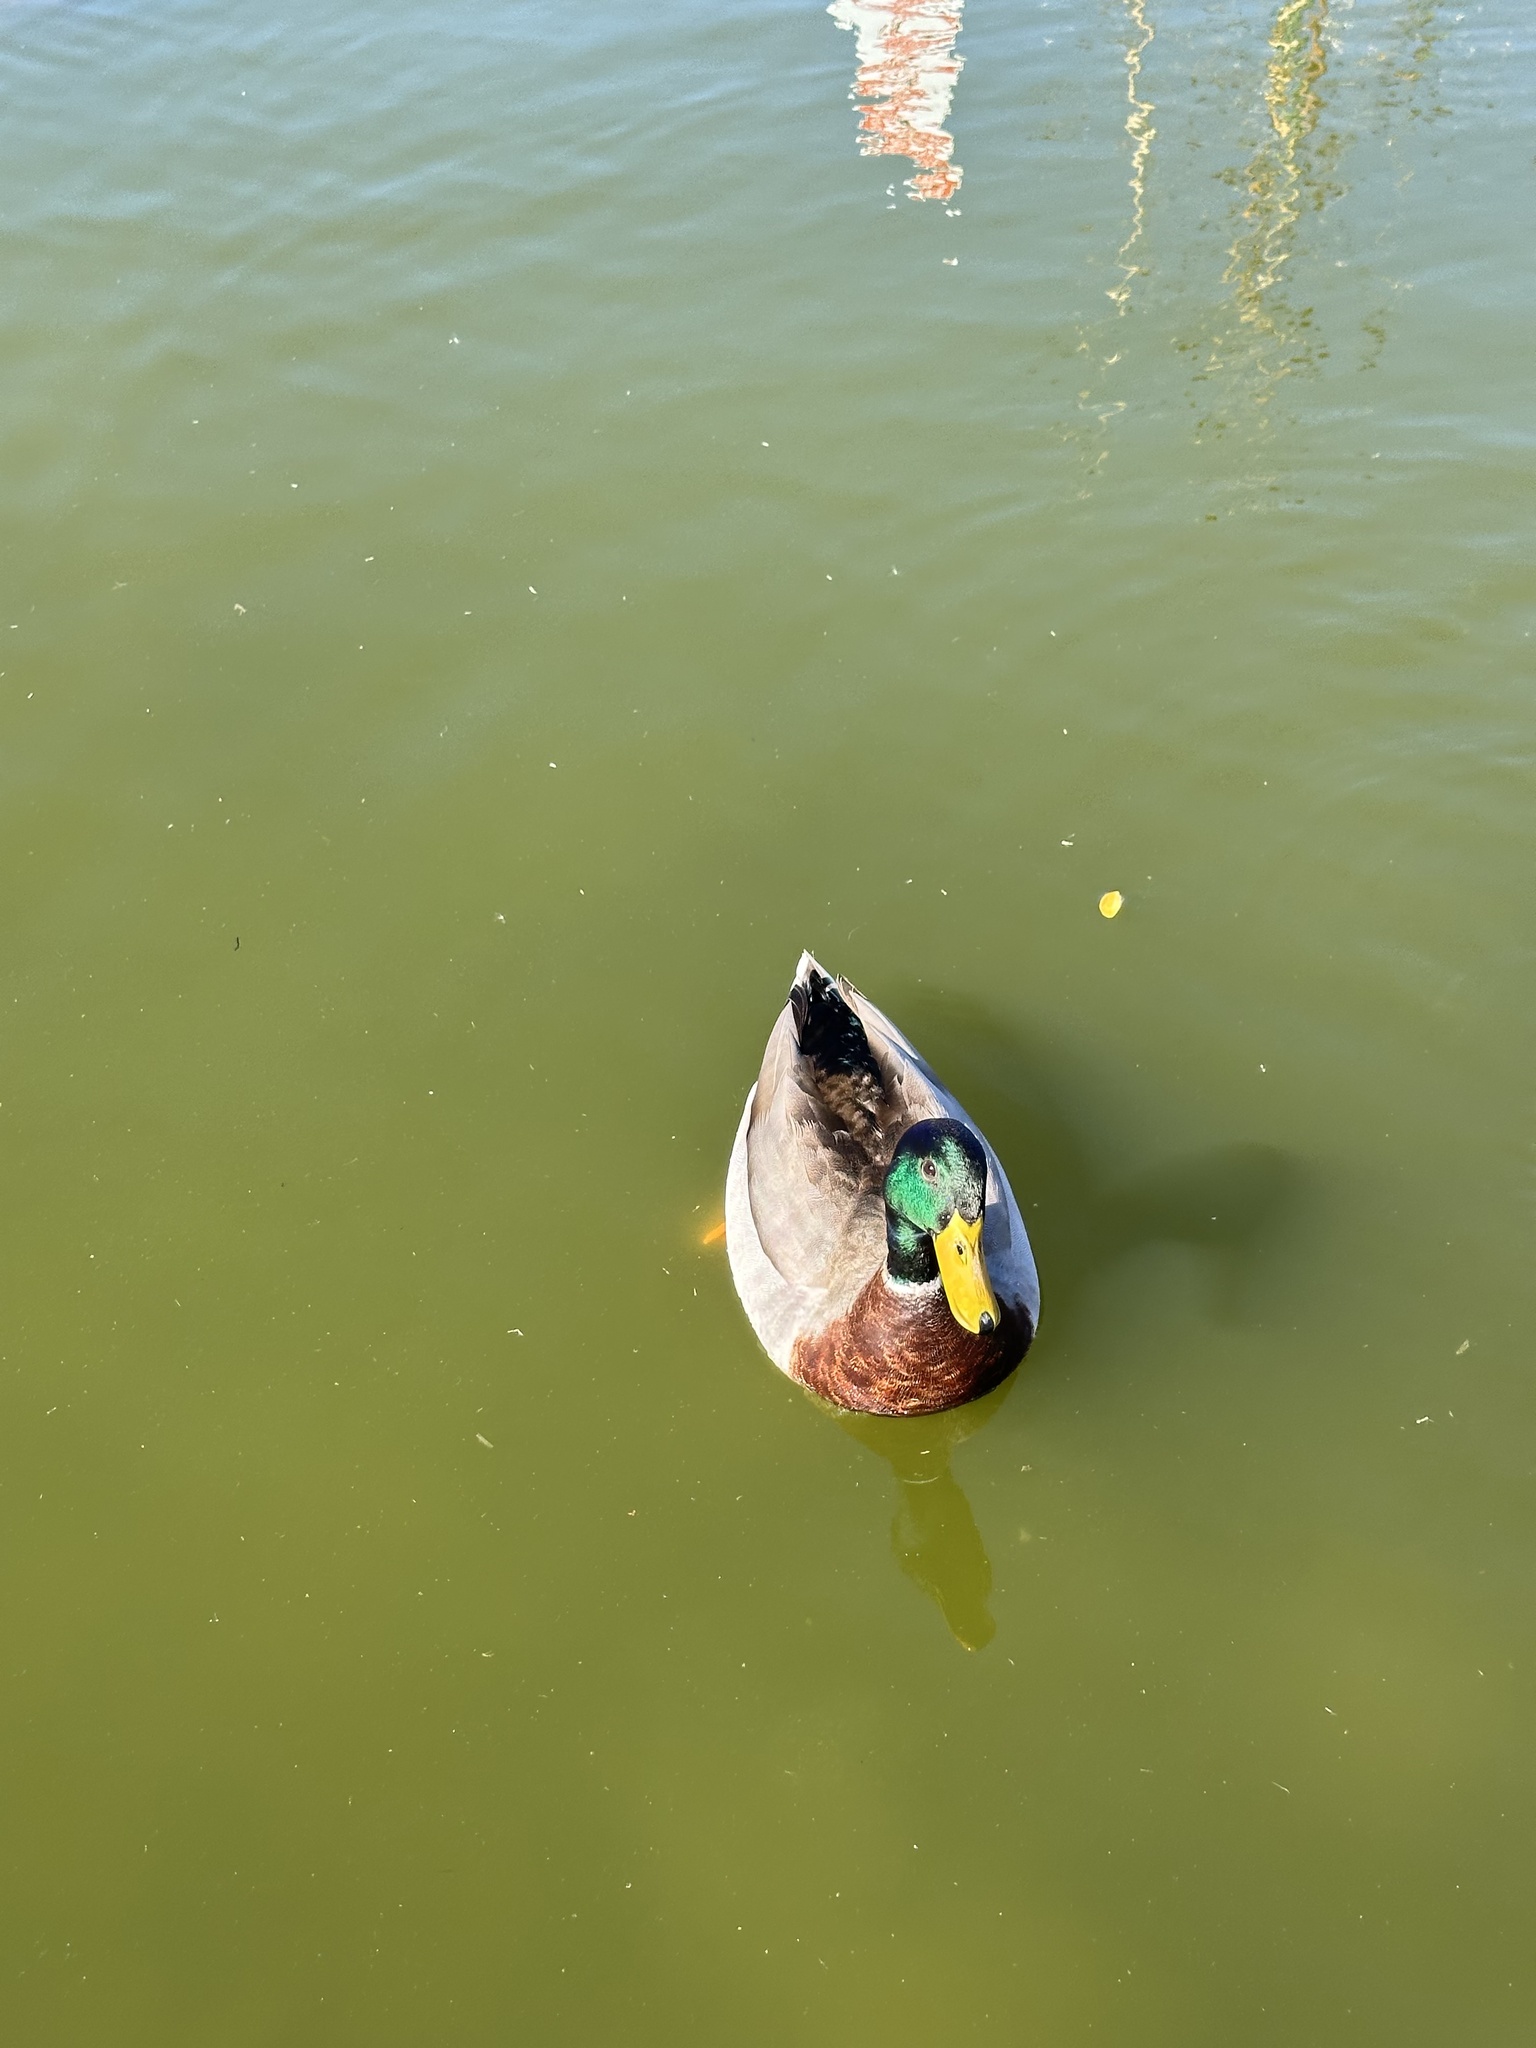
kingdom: Animalia
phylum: Chordata
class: Aves
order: Anseriformes
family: Anatidae
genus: Anas
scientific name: Anas platyrhynchos
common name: Mallard
